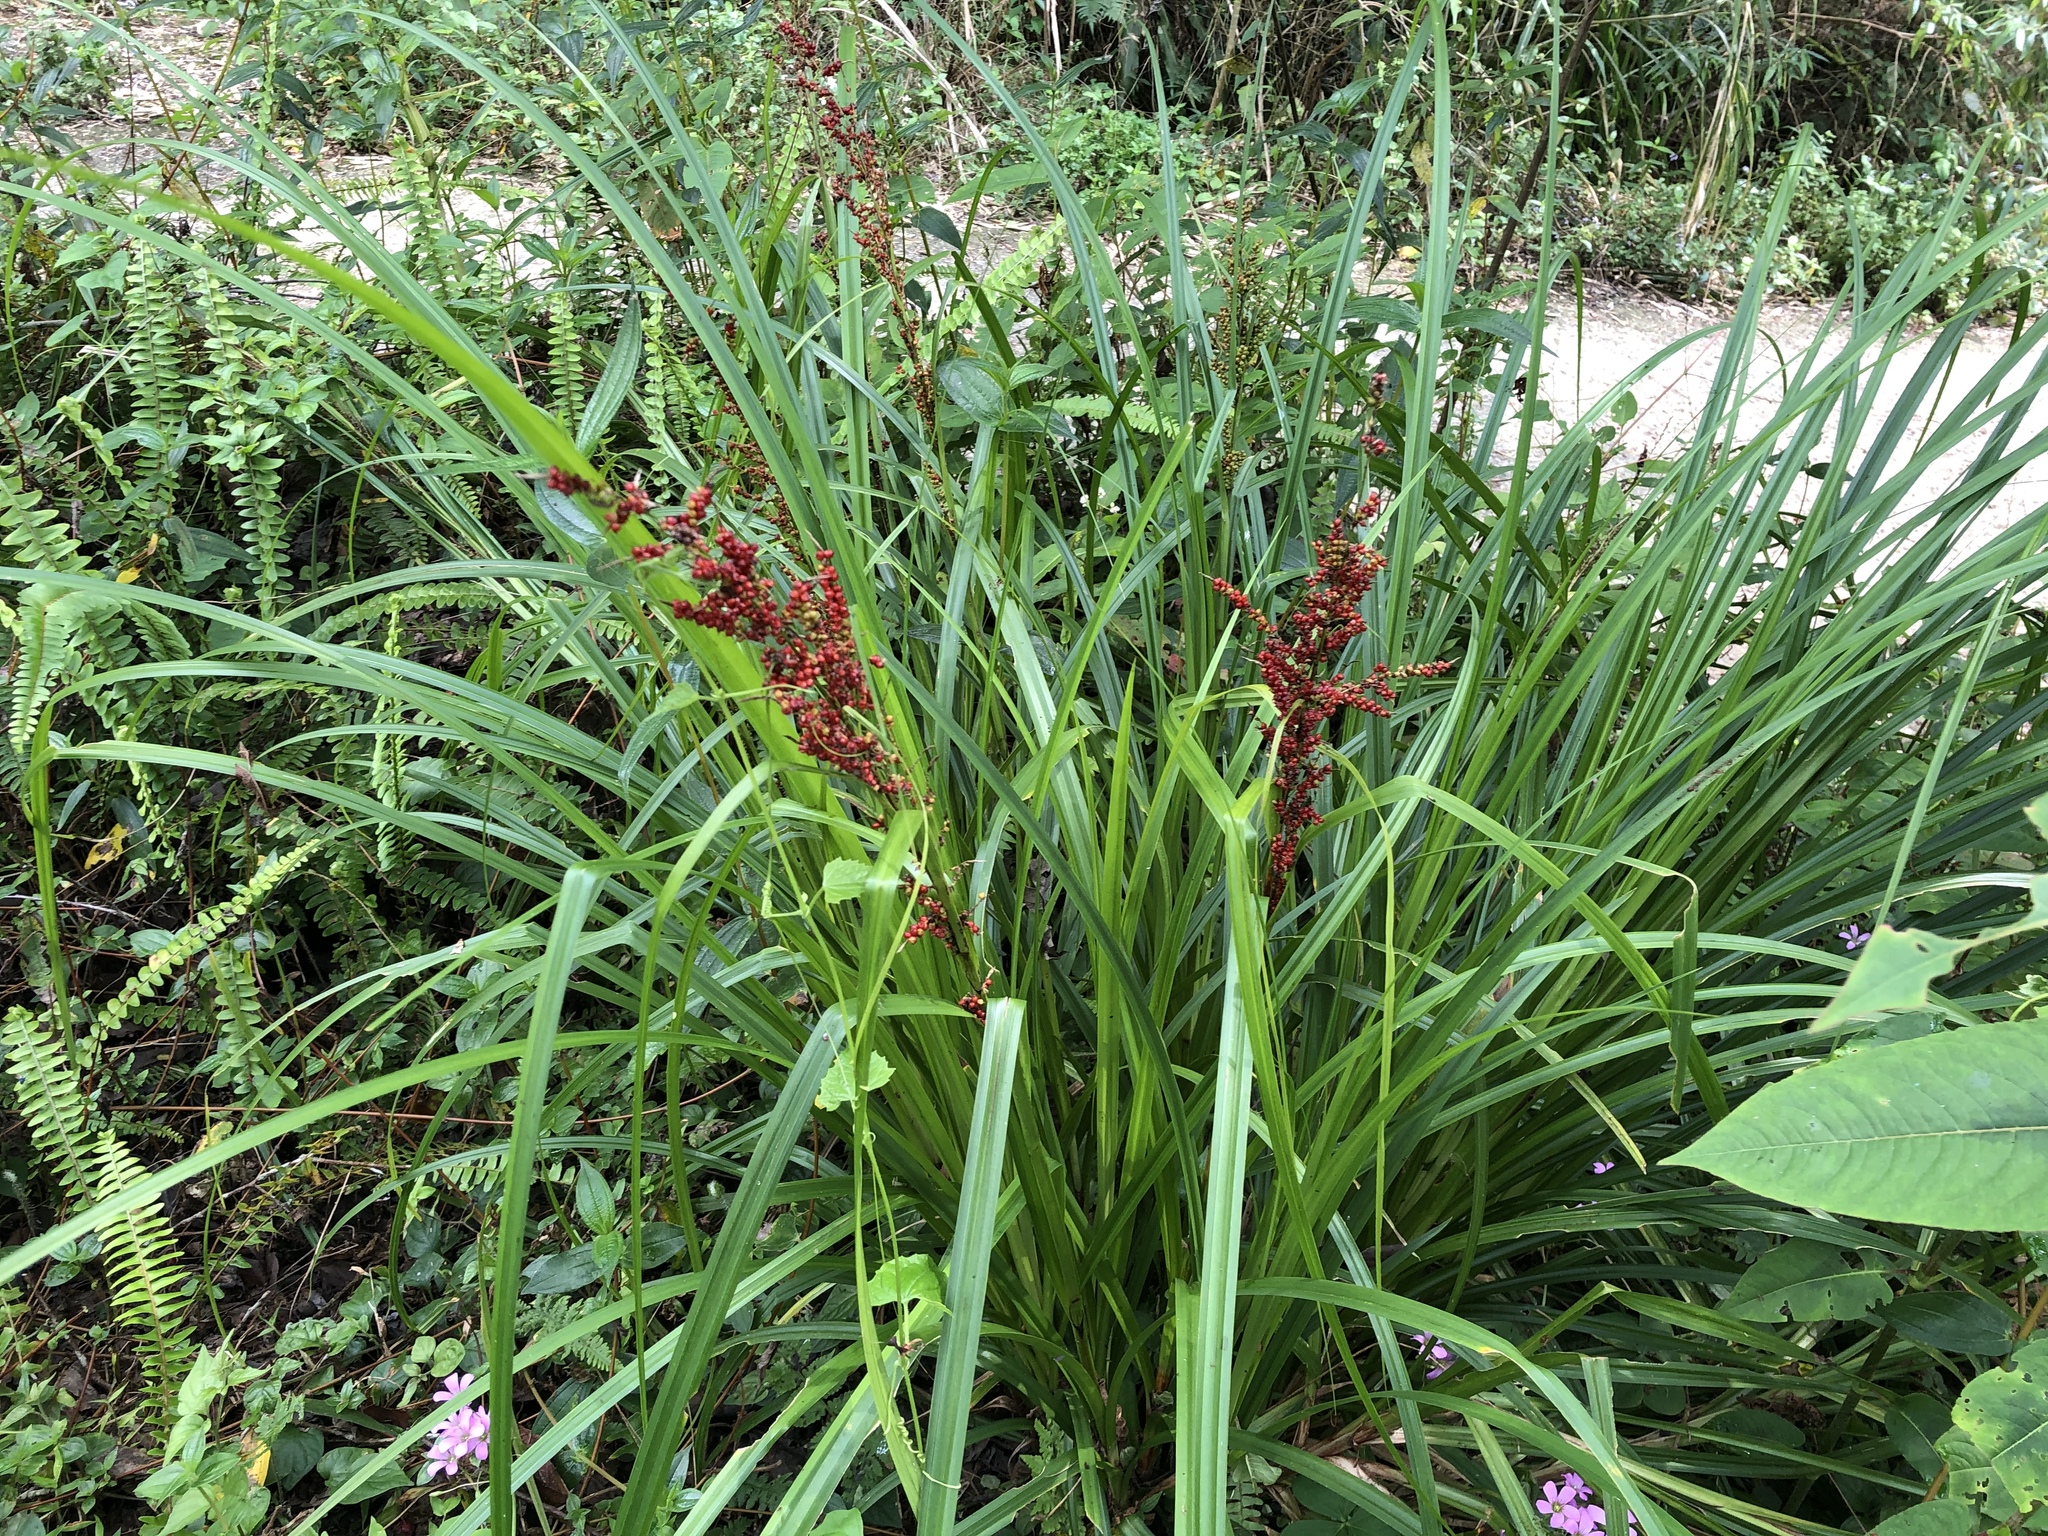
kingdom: Plantae
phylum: Tracheophyta
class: Liliopsida
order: Poales
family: Cyperaceae
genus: Carex
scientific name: Carex baccans
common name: Crimson seeded sedge
